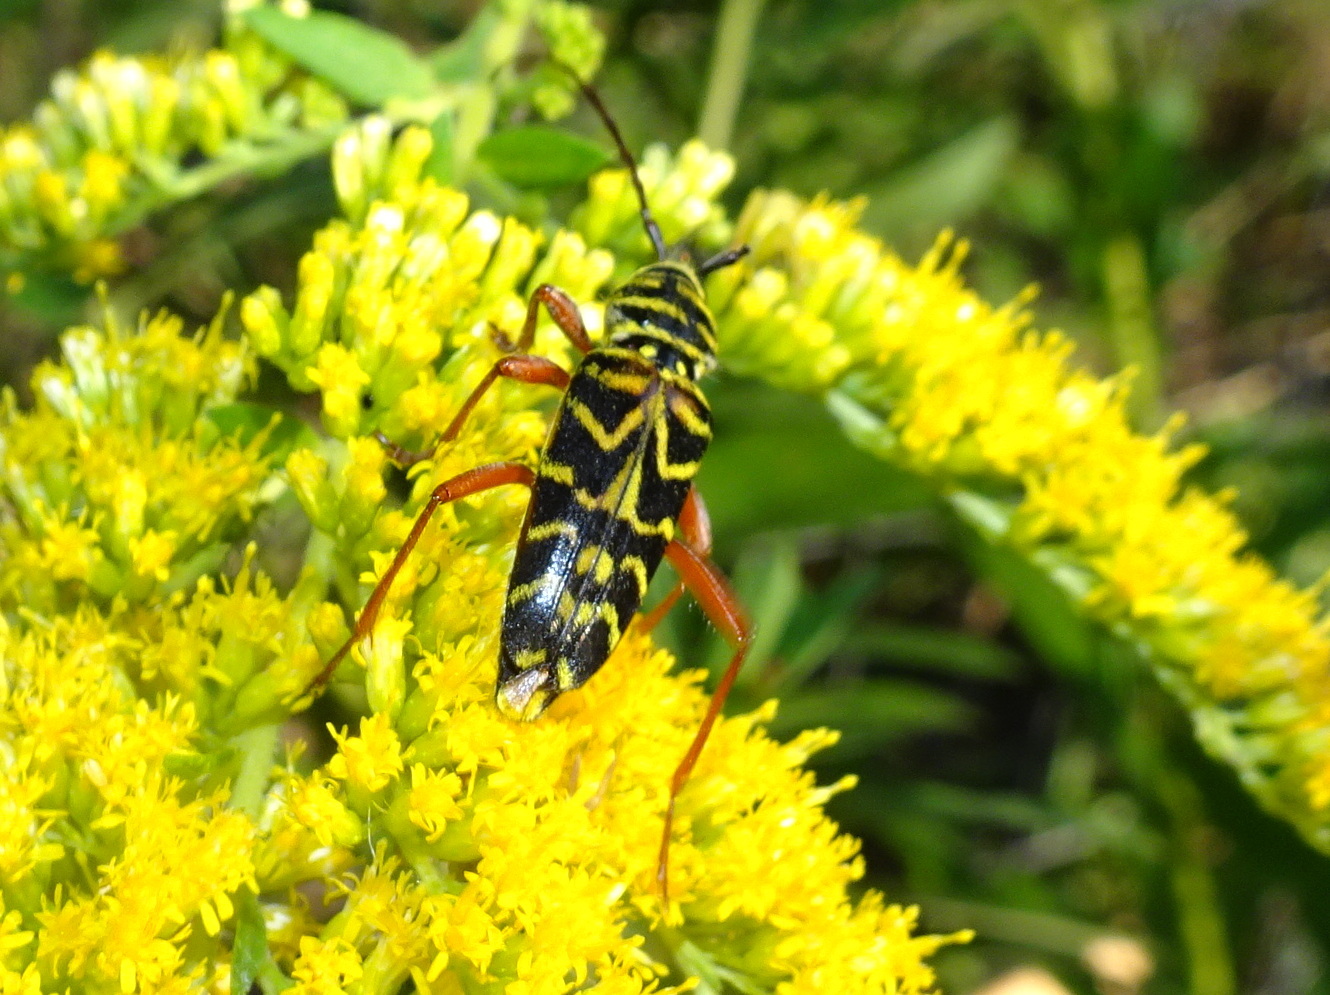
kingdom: Animalia
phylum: Arthropoda
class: Insecta
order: Coleoptera
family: Cerambycidae
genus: Megacyllene
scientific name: Megacyllene robiniae
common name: Locust borer
